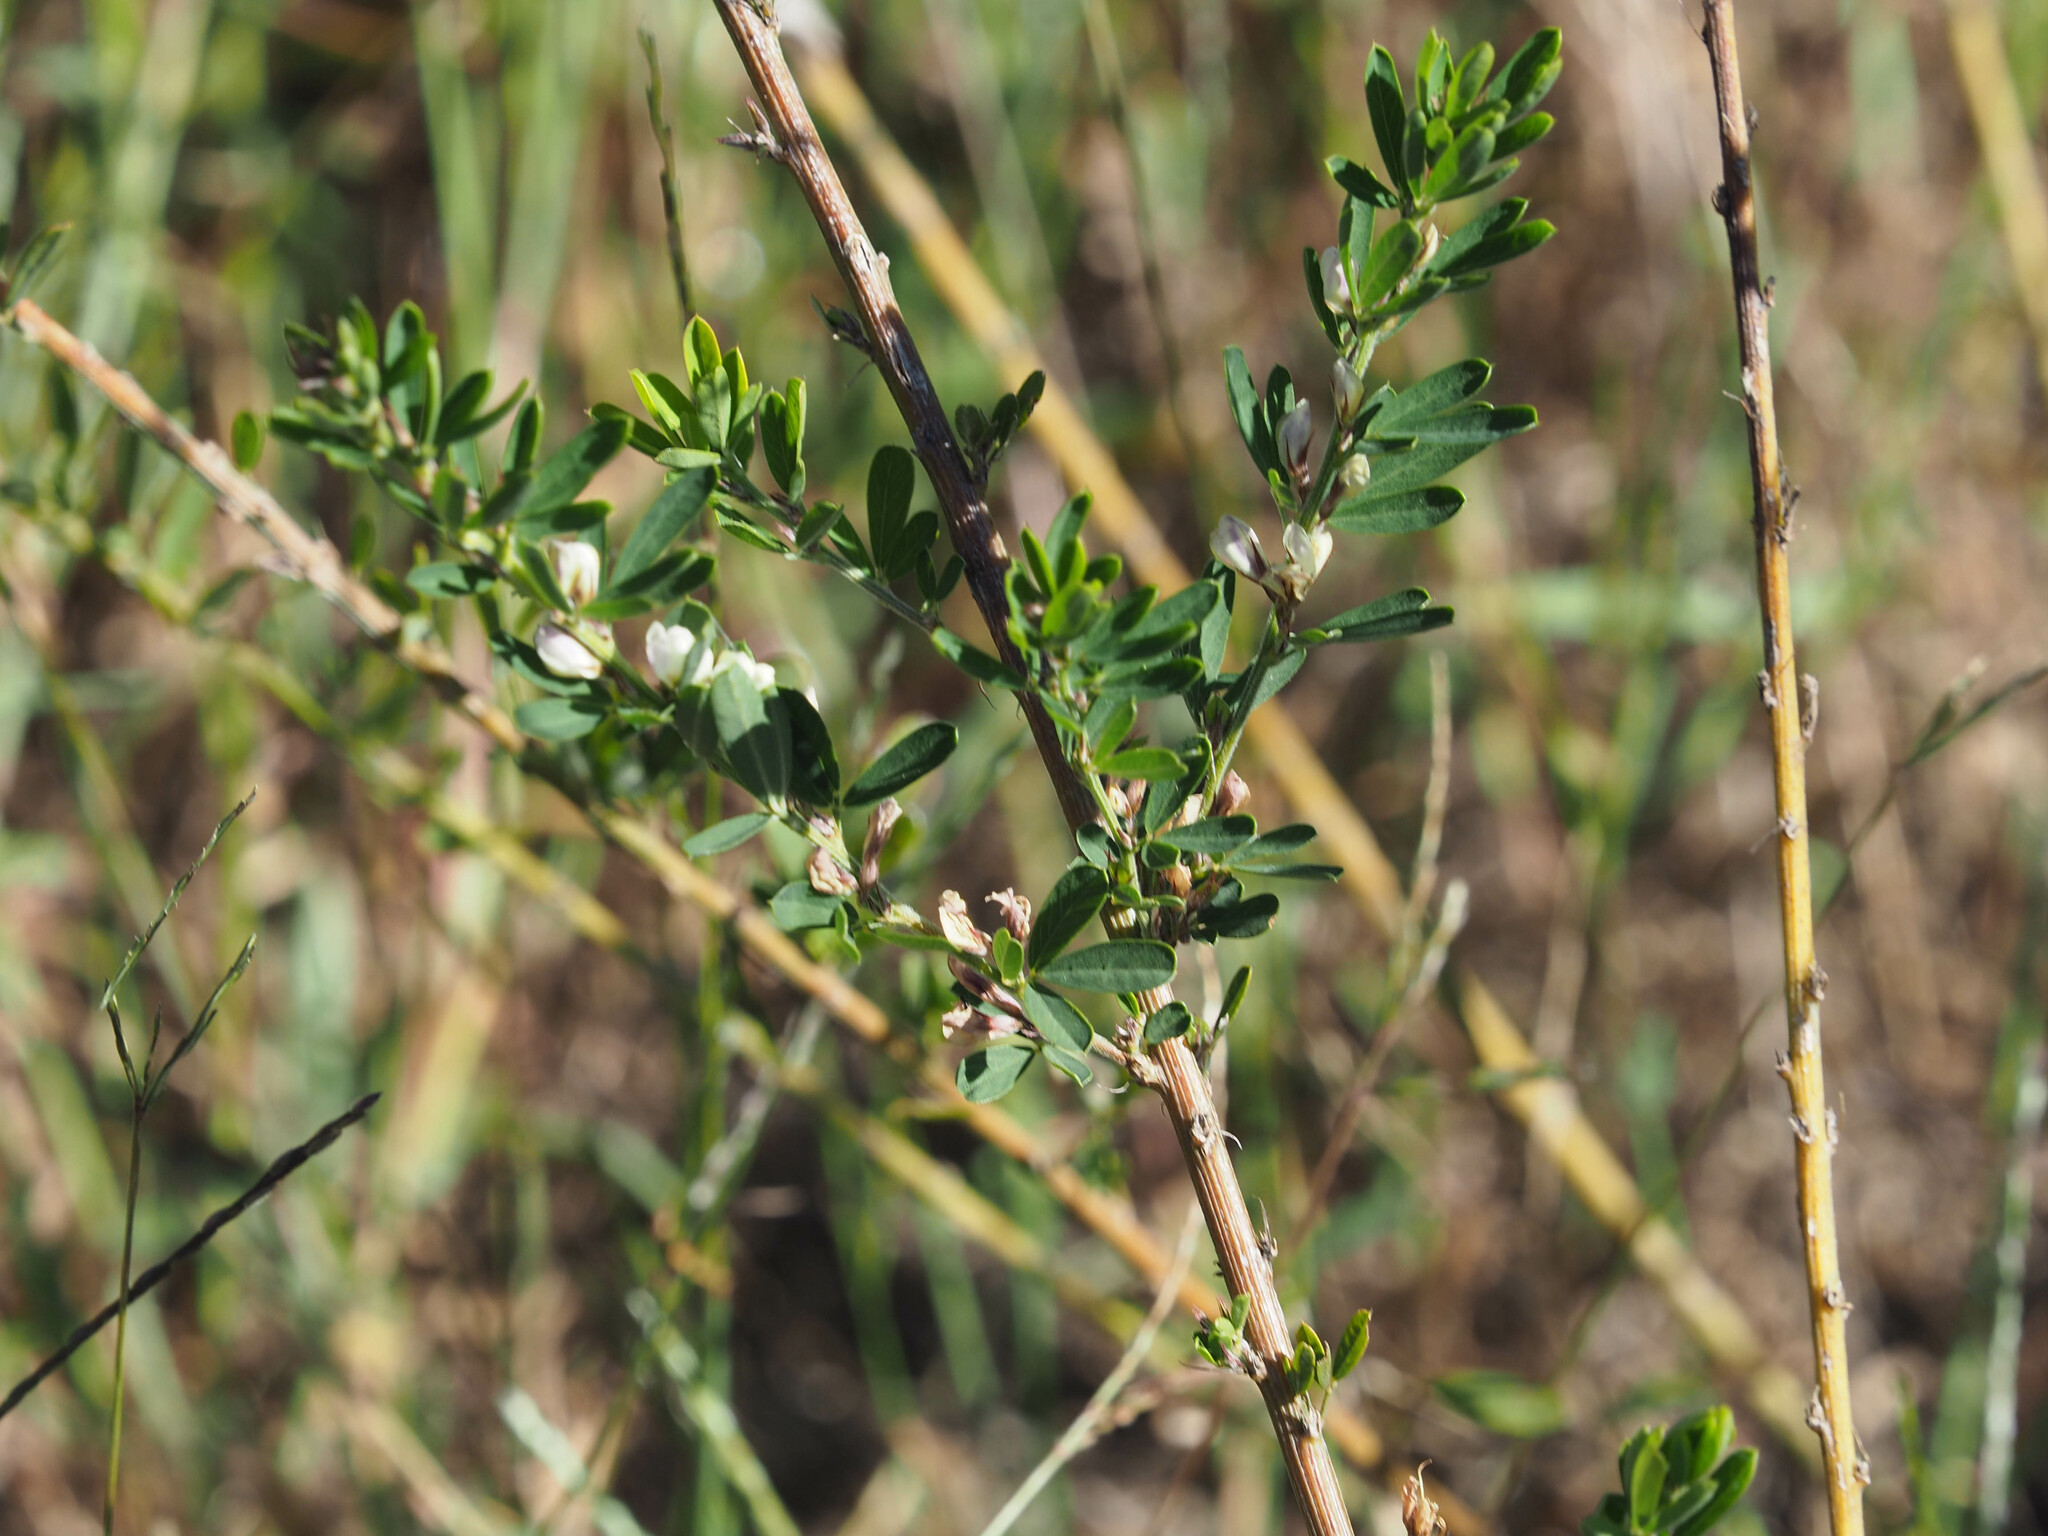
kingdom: Plantae
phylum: Tracheophyta
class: Magnoliopsida
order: Fabales
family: Fabaceae
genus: Lespedeza
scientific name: Lespedeza cuneata
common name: Chinese bush-clover
